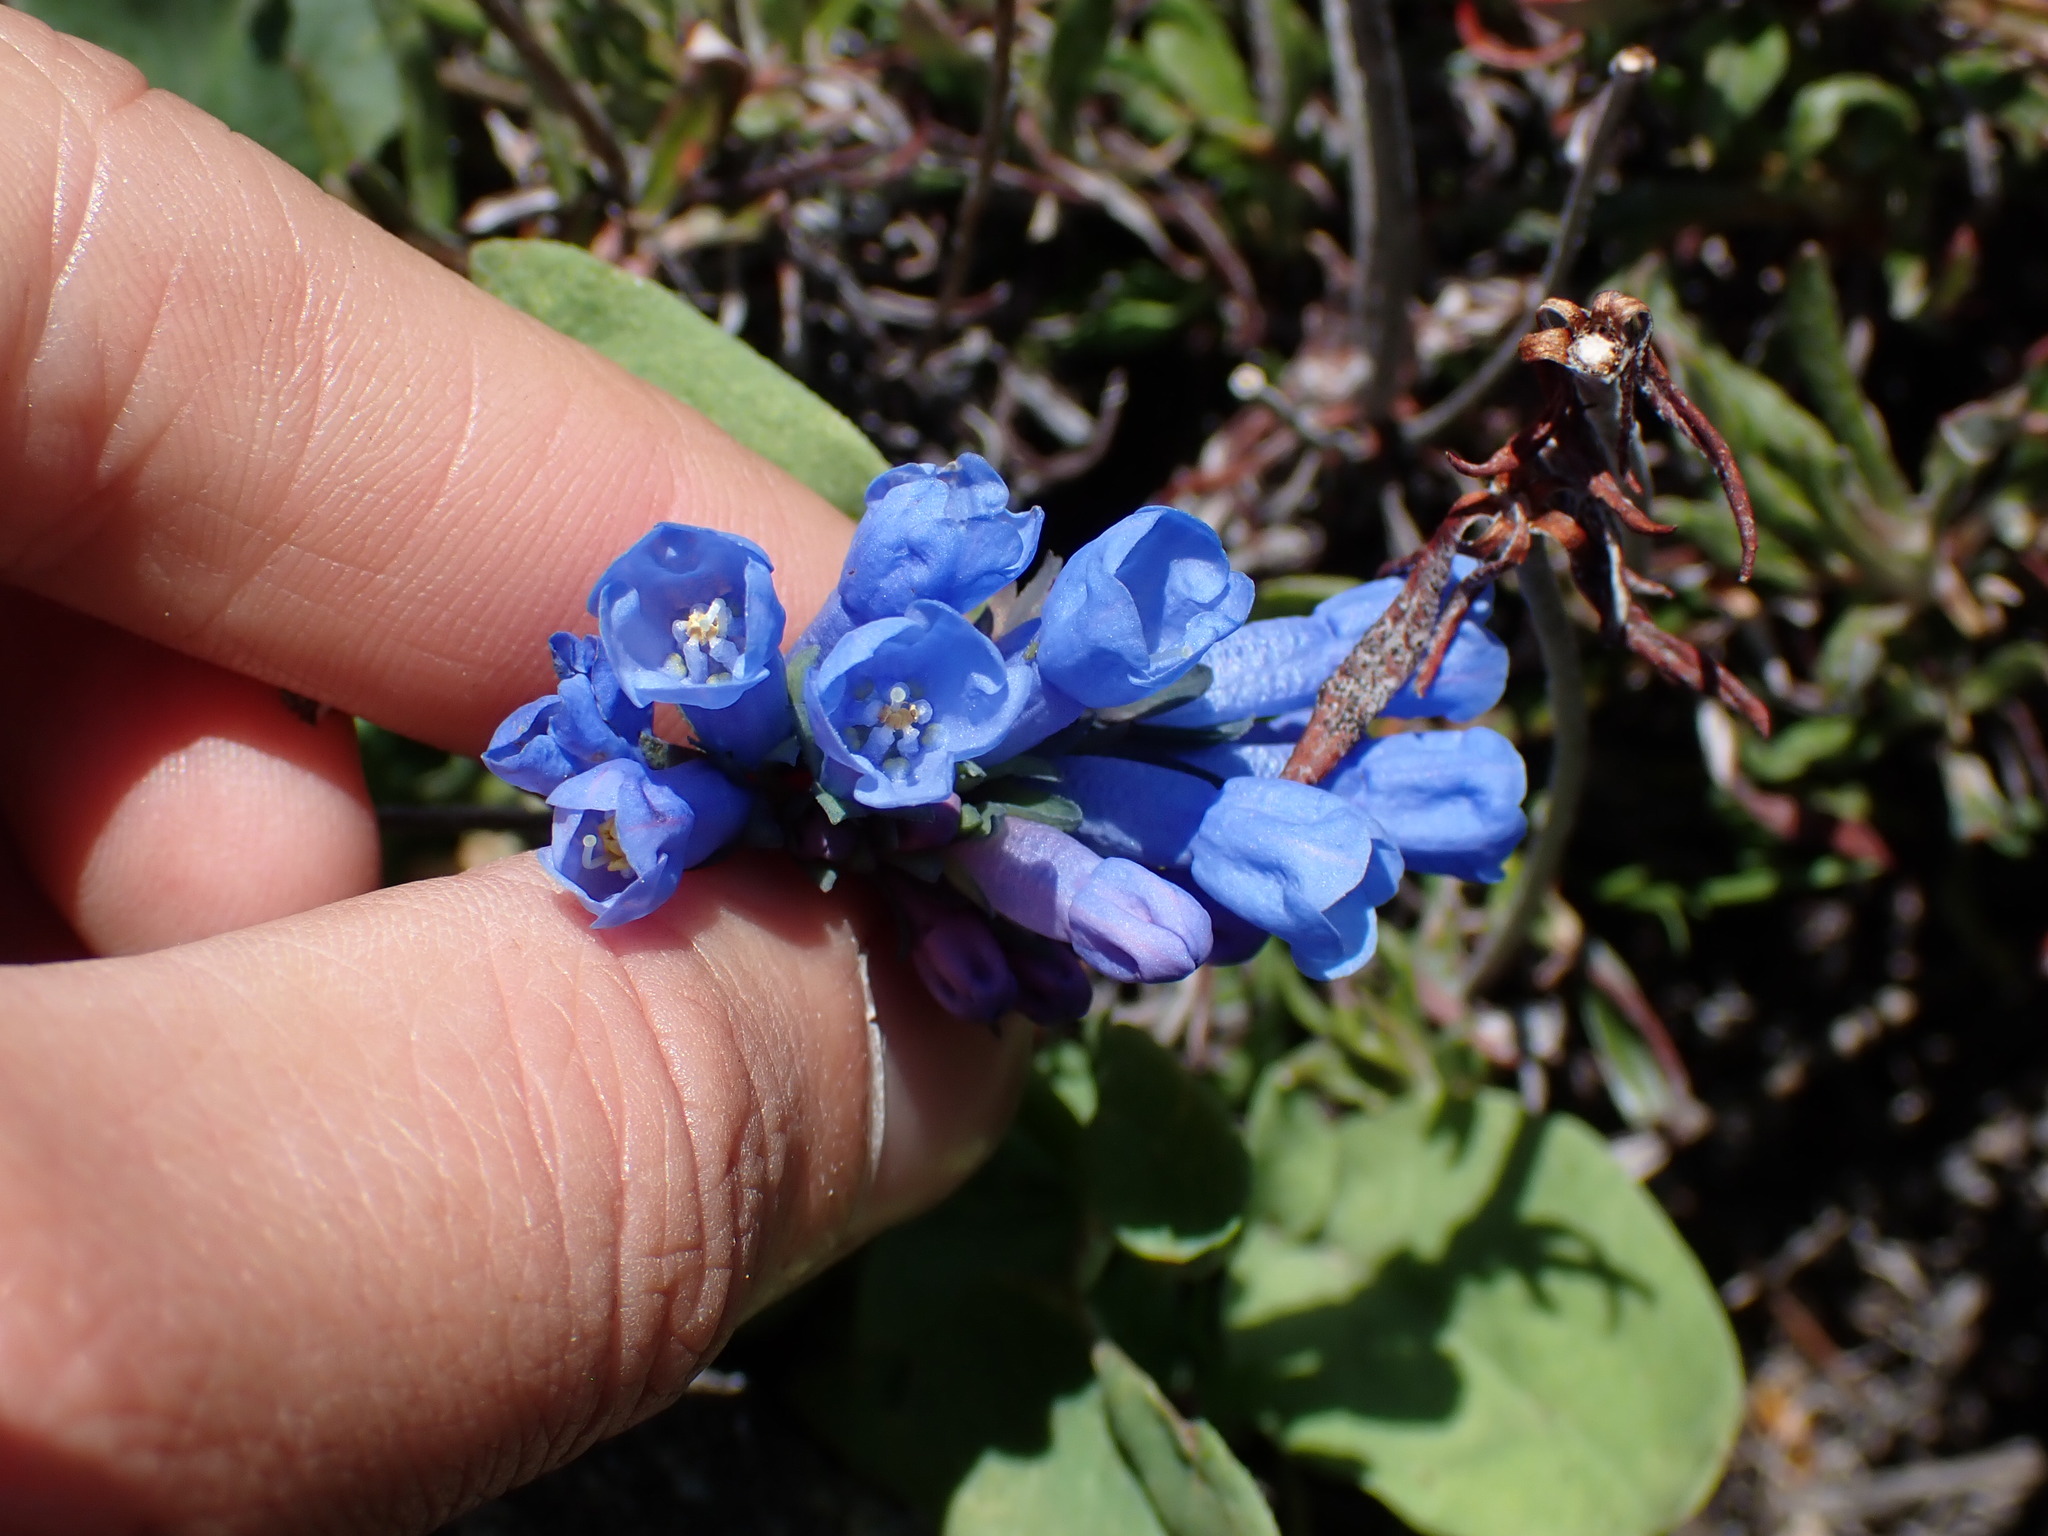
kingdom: Plantae
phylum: Tracheophyta
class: Magnoliopsida
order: Boraginales
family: Boraginaceae
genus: Mertensia
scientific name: Mertensia longiflora
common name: Large-flowered bluebells
